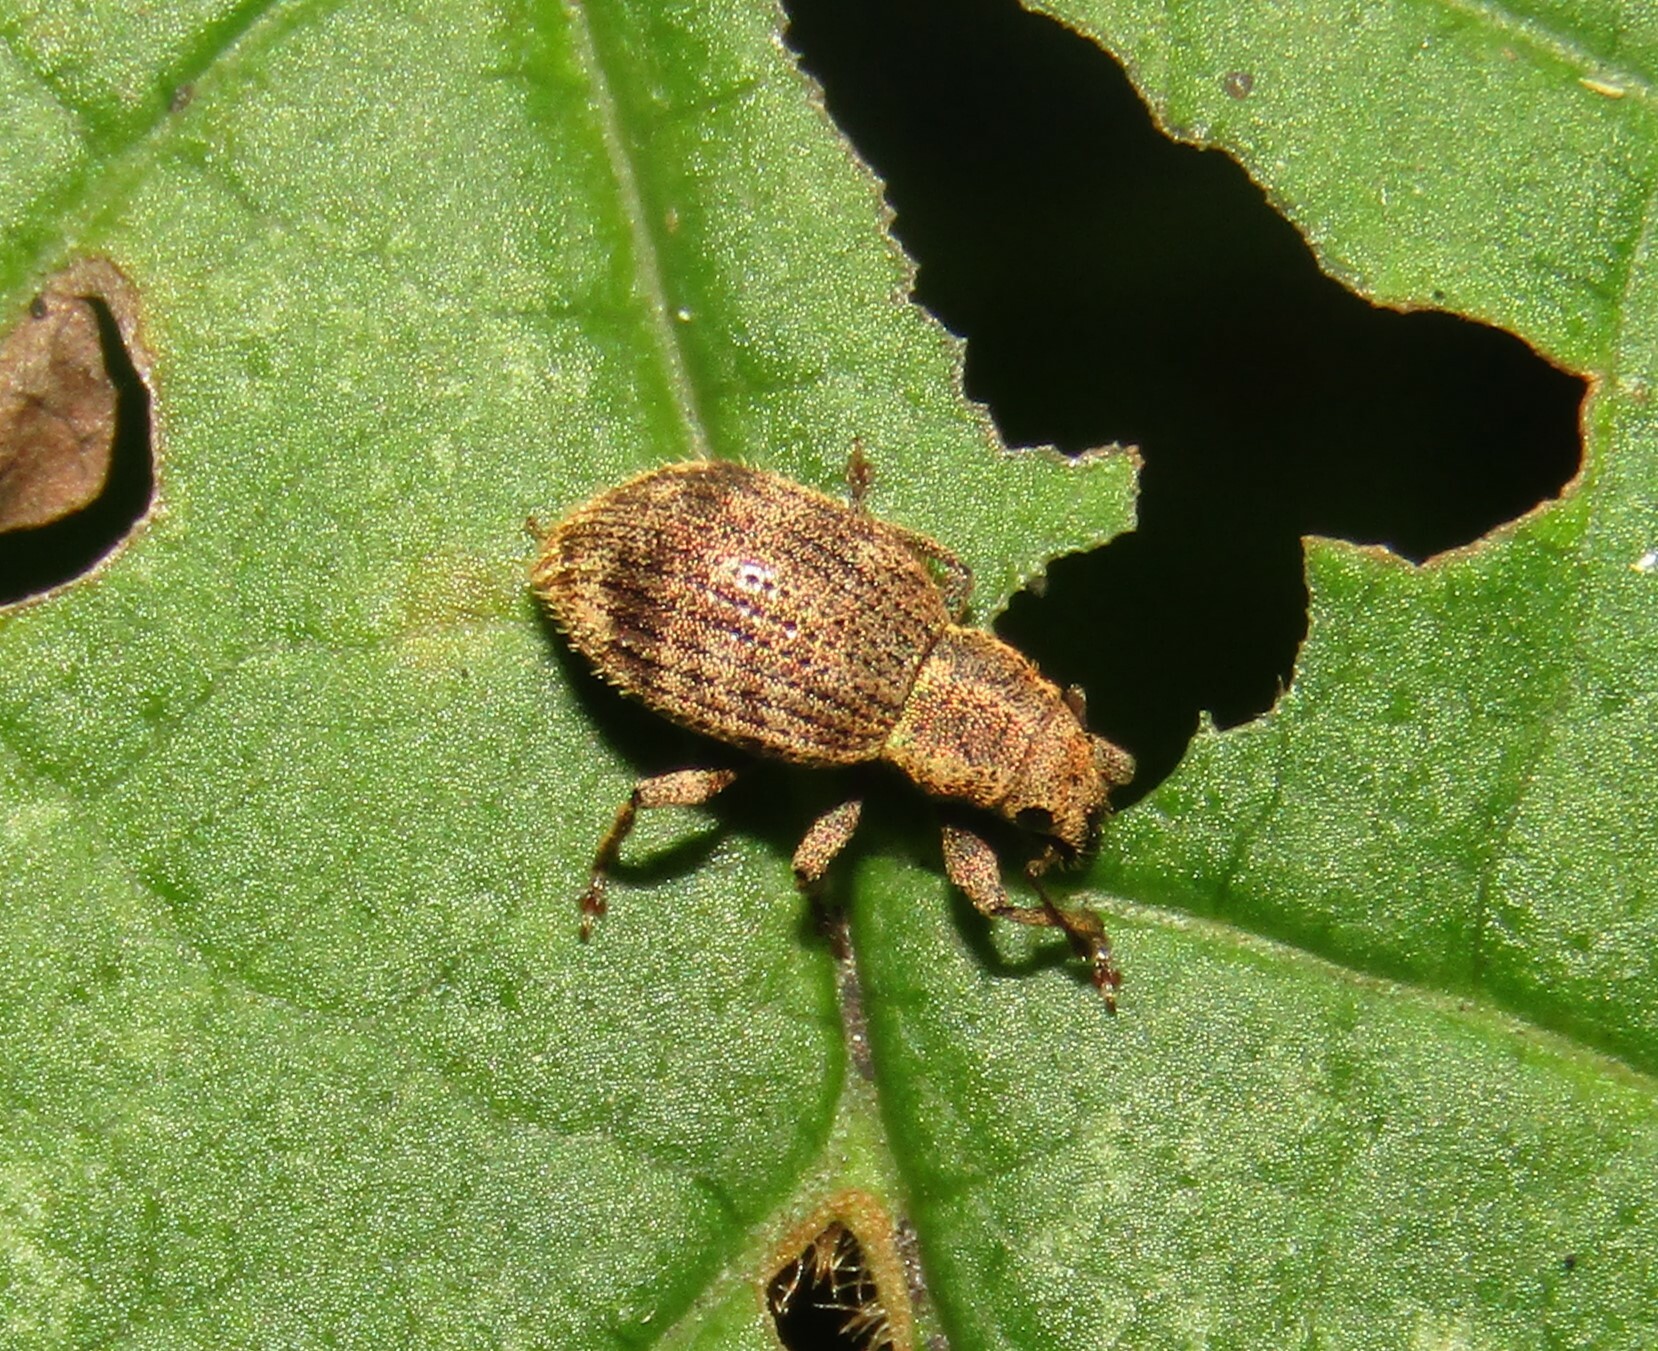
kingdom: Animalia
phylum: Arthropoda
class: Insecta
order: Coleoptera
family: Curculionidae
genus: Sciaphilus
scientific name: Sciaphilus asperatus
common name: Weevil
